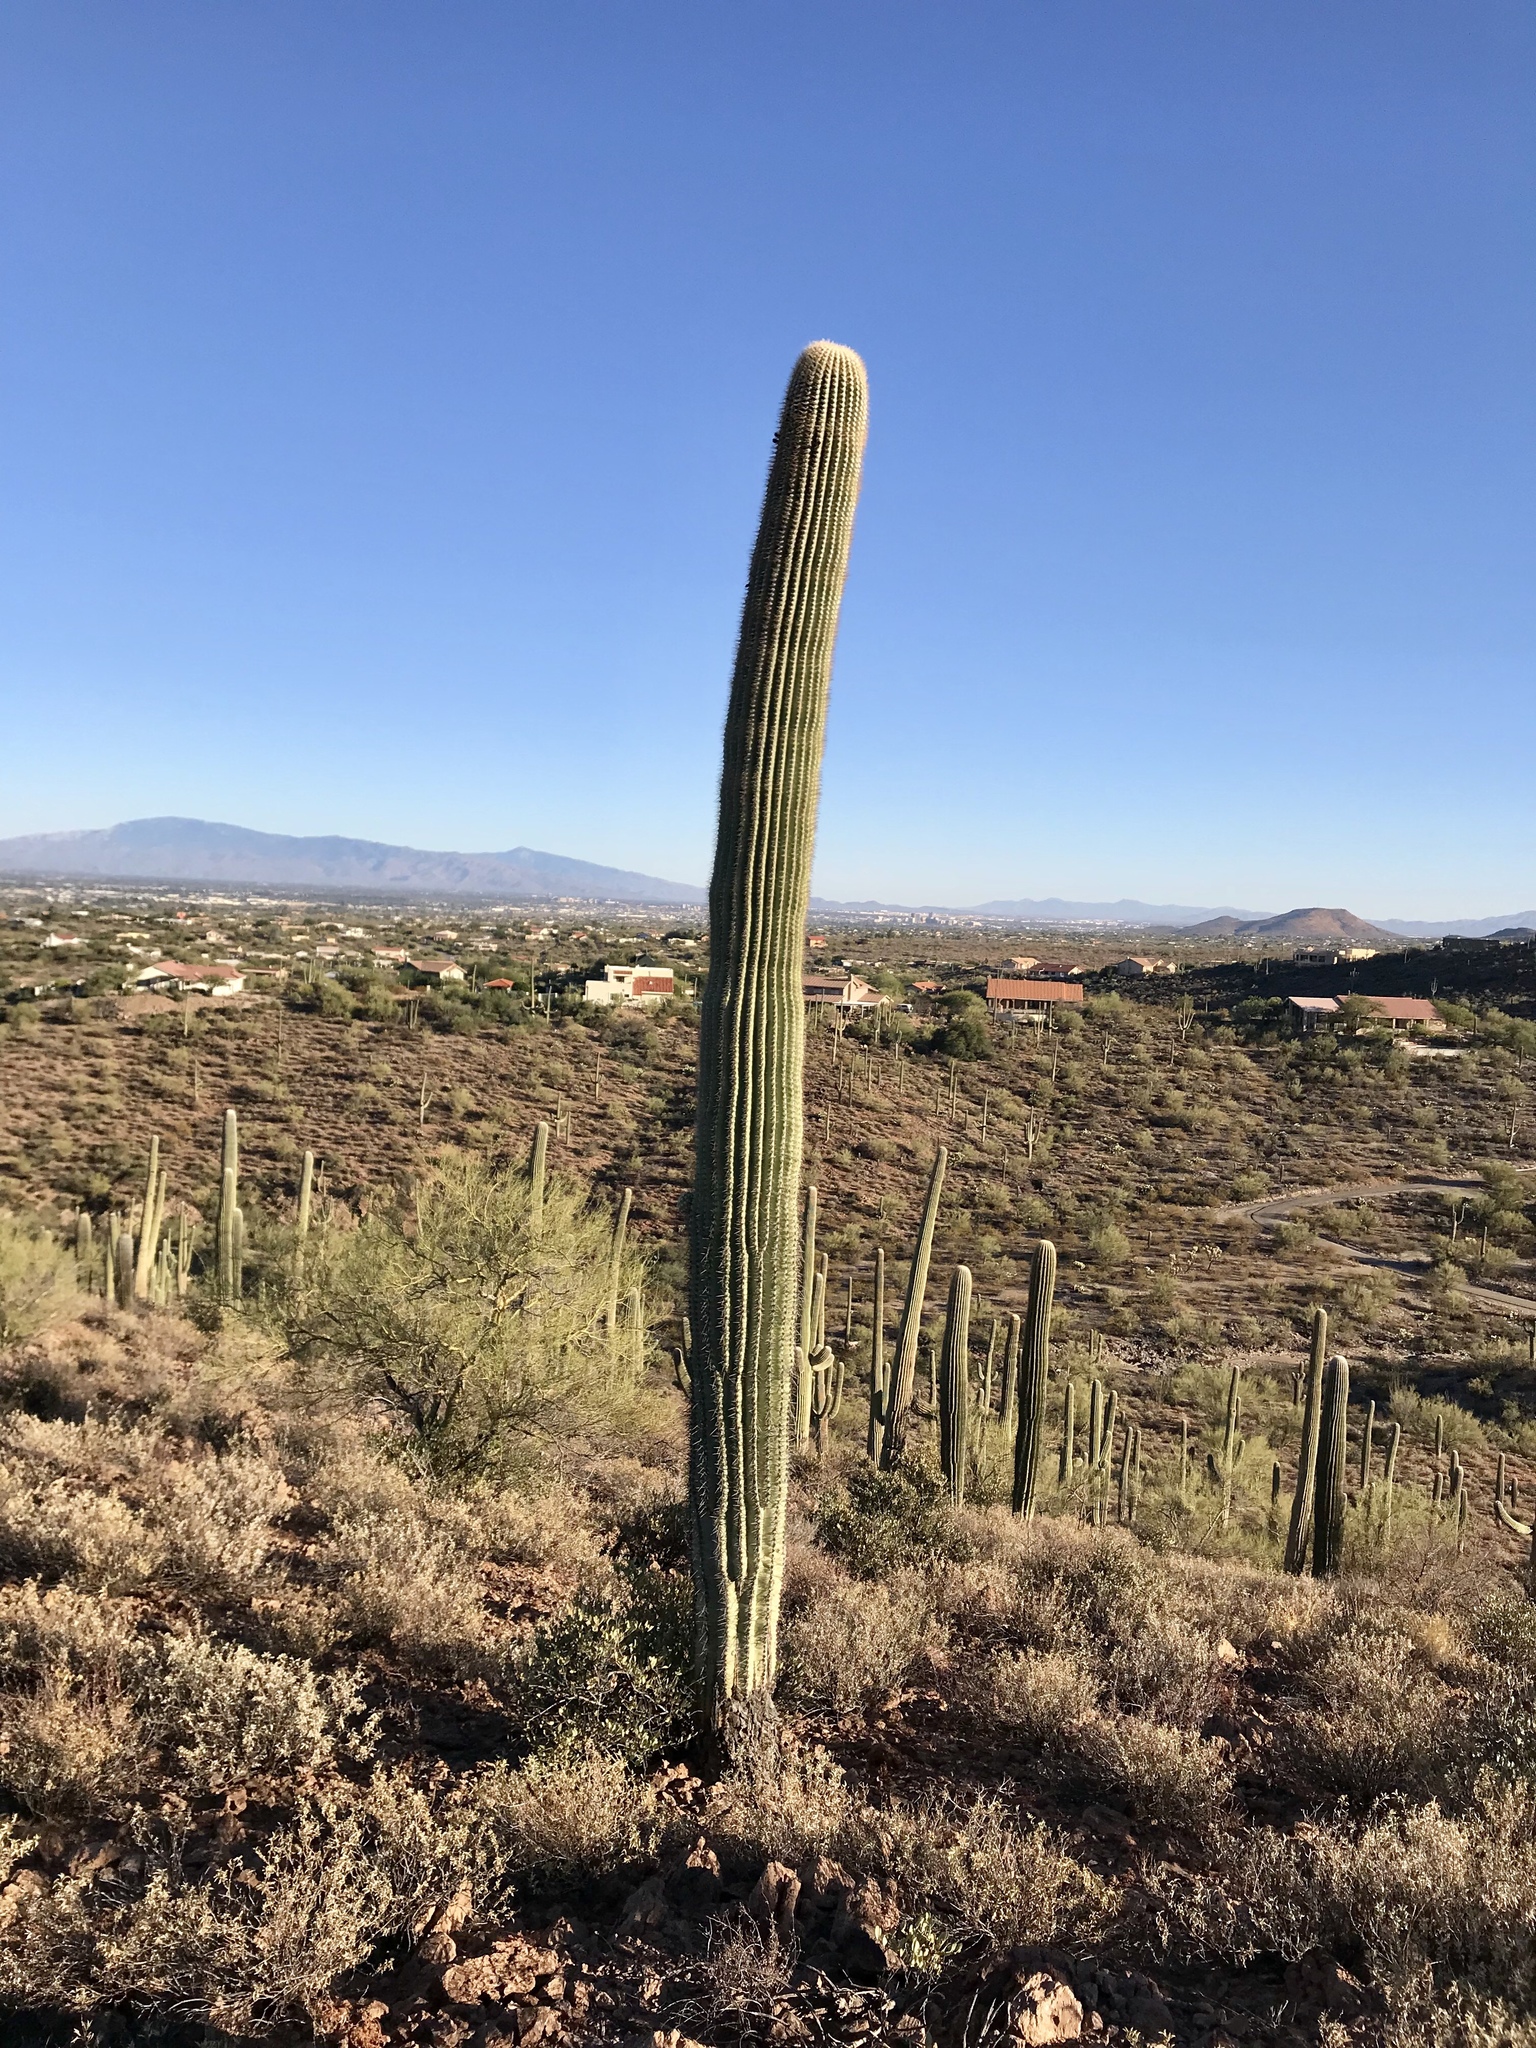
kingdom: Plantae
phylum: Tracheophyta
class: Magnoliopsida
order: Caryophyllales
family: Cactaceae
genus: Carnegiea
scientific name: Carnegiea gigantea
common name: Saguaro
